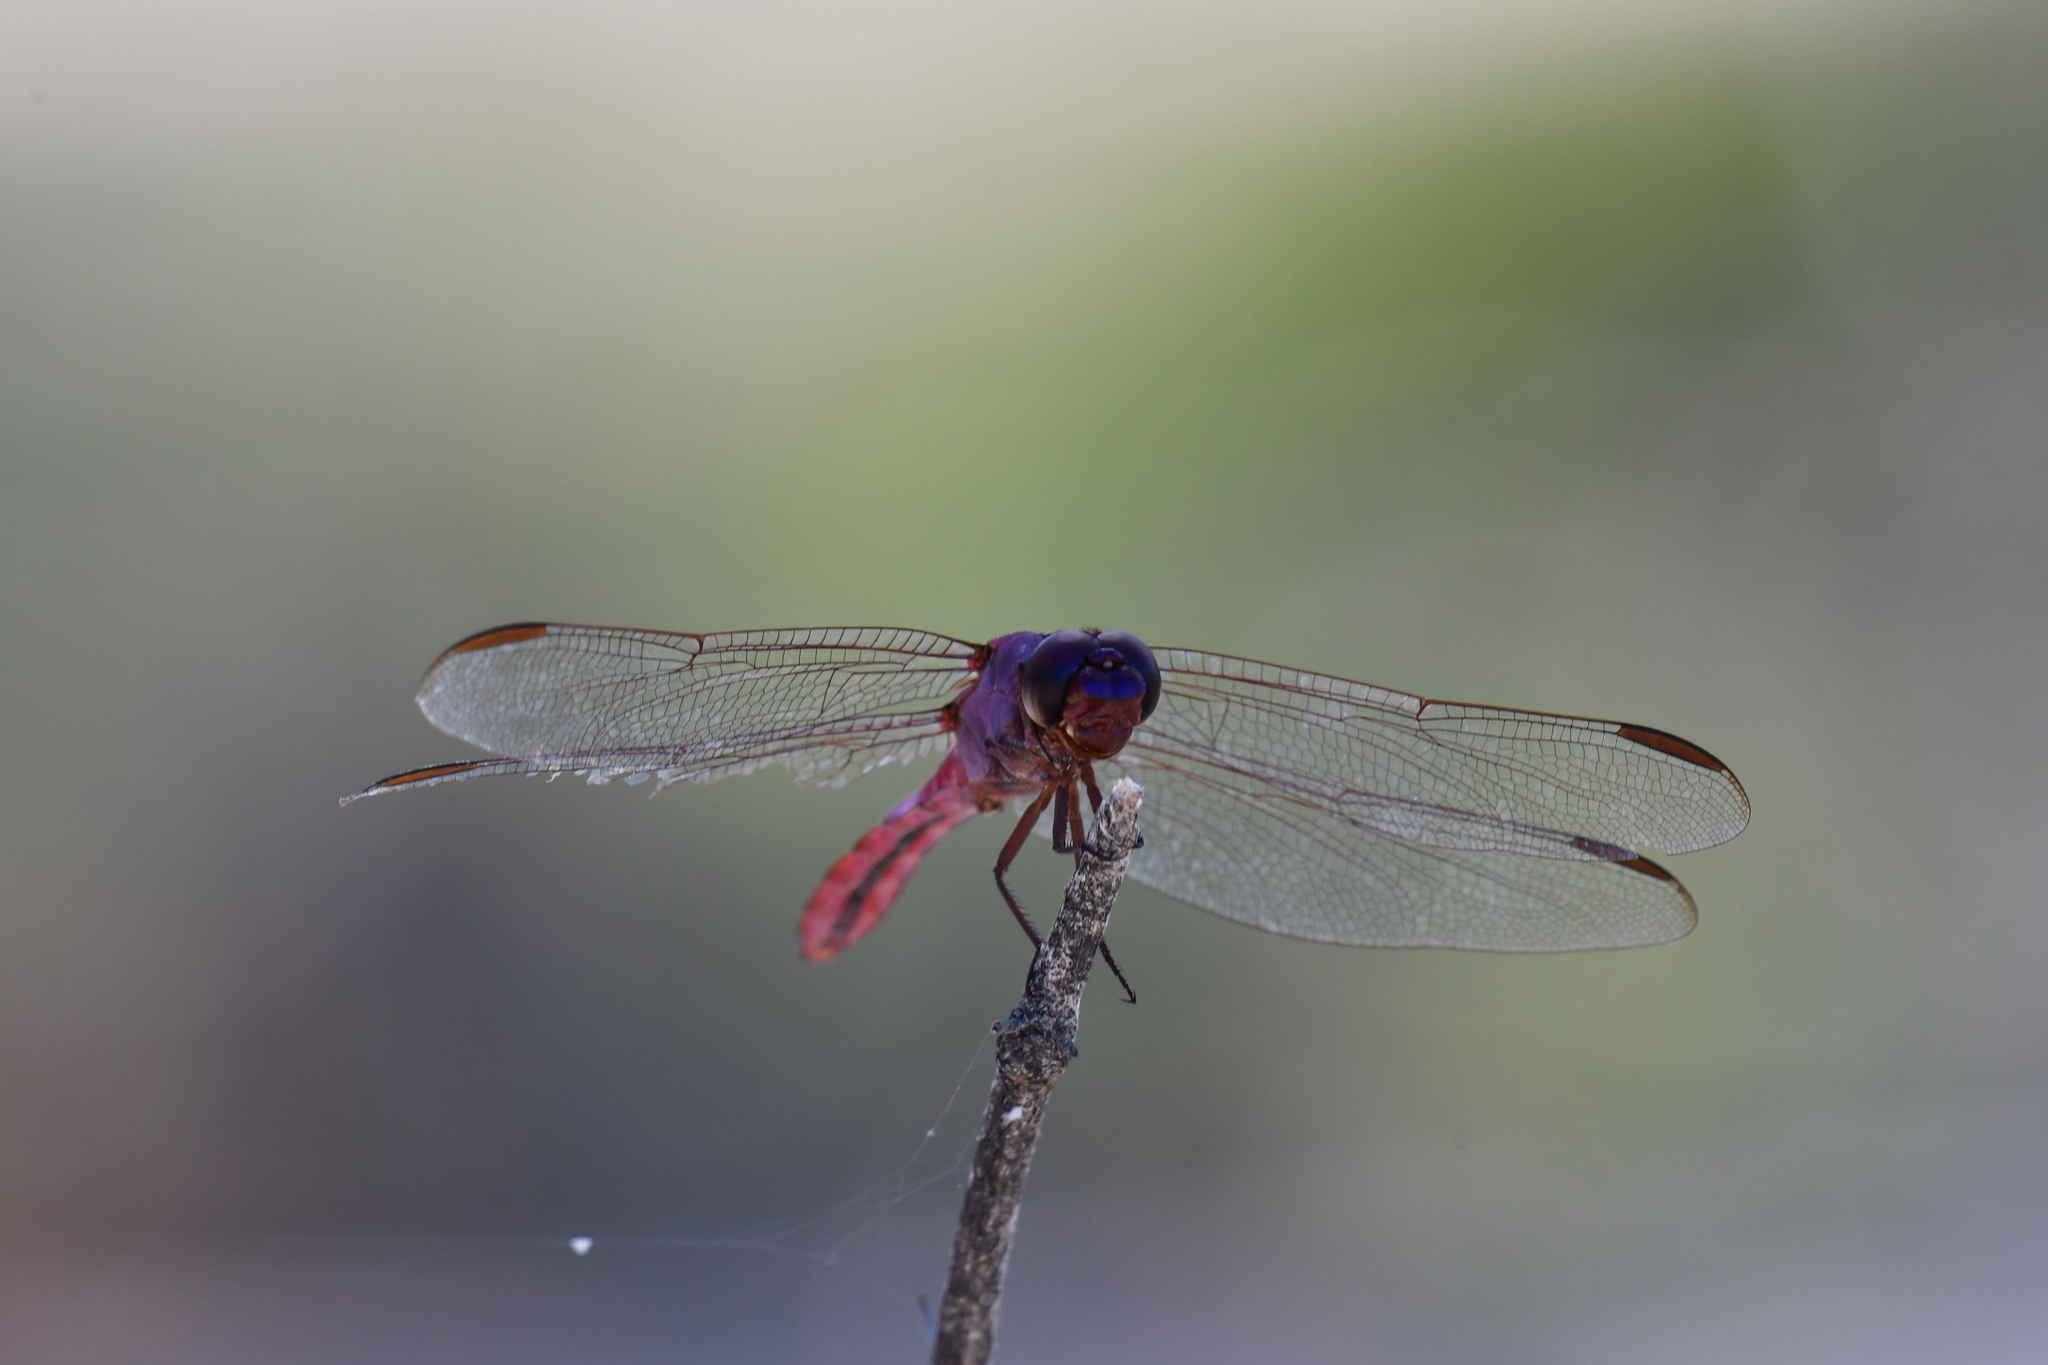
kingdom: Animalia
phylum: Arthropoda
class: Insecta
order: Odonata
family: Libellulidae
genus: Orthemis
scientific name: Orthemis ferruginea
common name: Roseate skimmer
